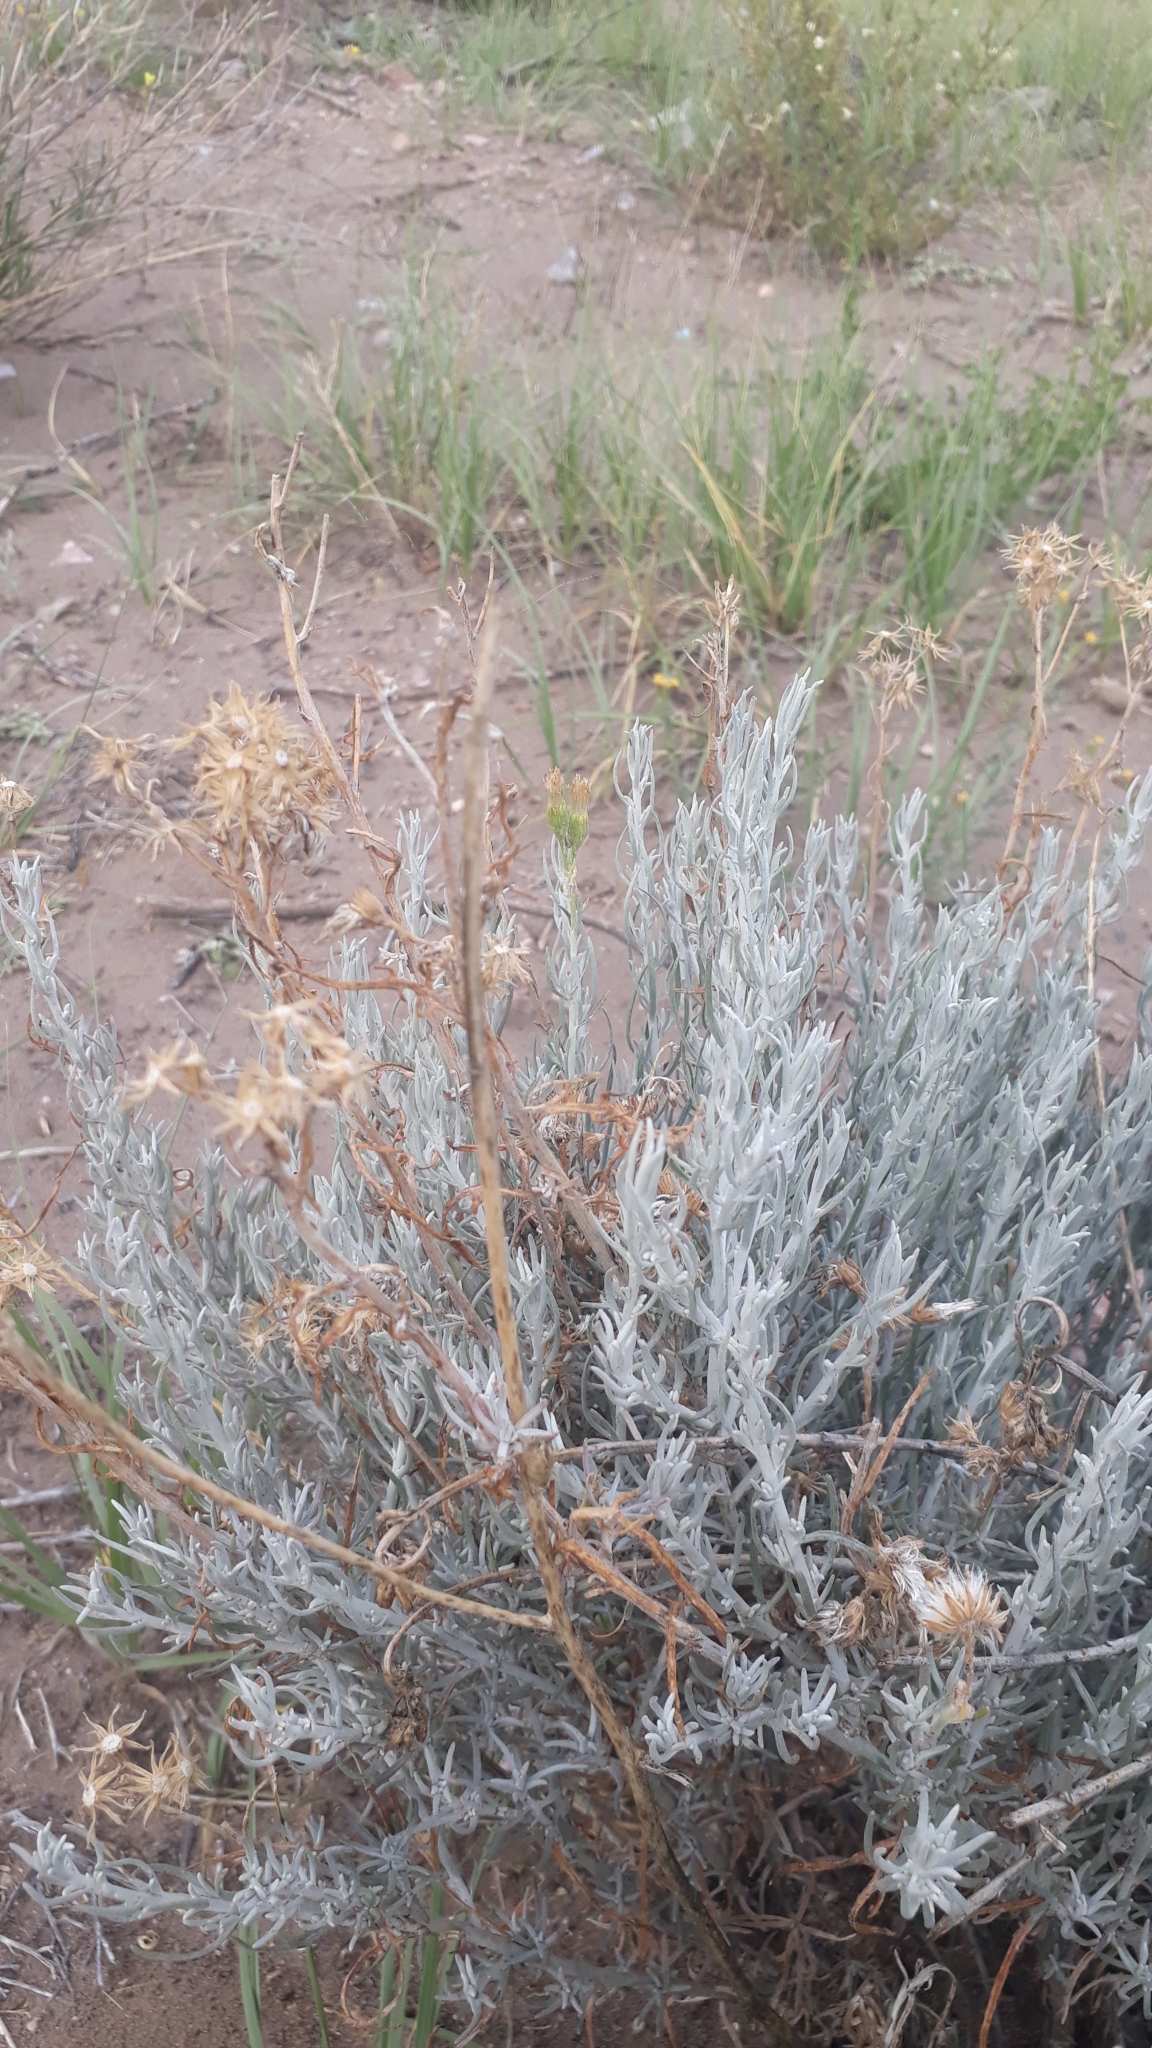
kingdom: Plantae
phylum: Tracheophyta
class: Magnoliopsida
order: Asterales
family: Asteraceae
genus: Senecio
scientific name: Senecio filaginoides
